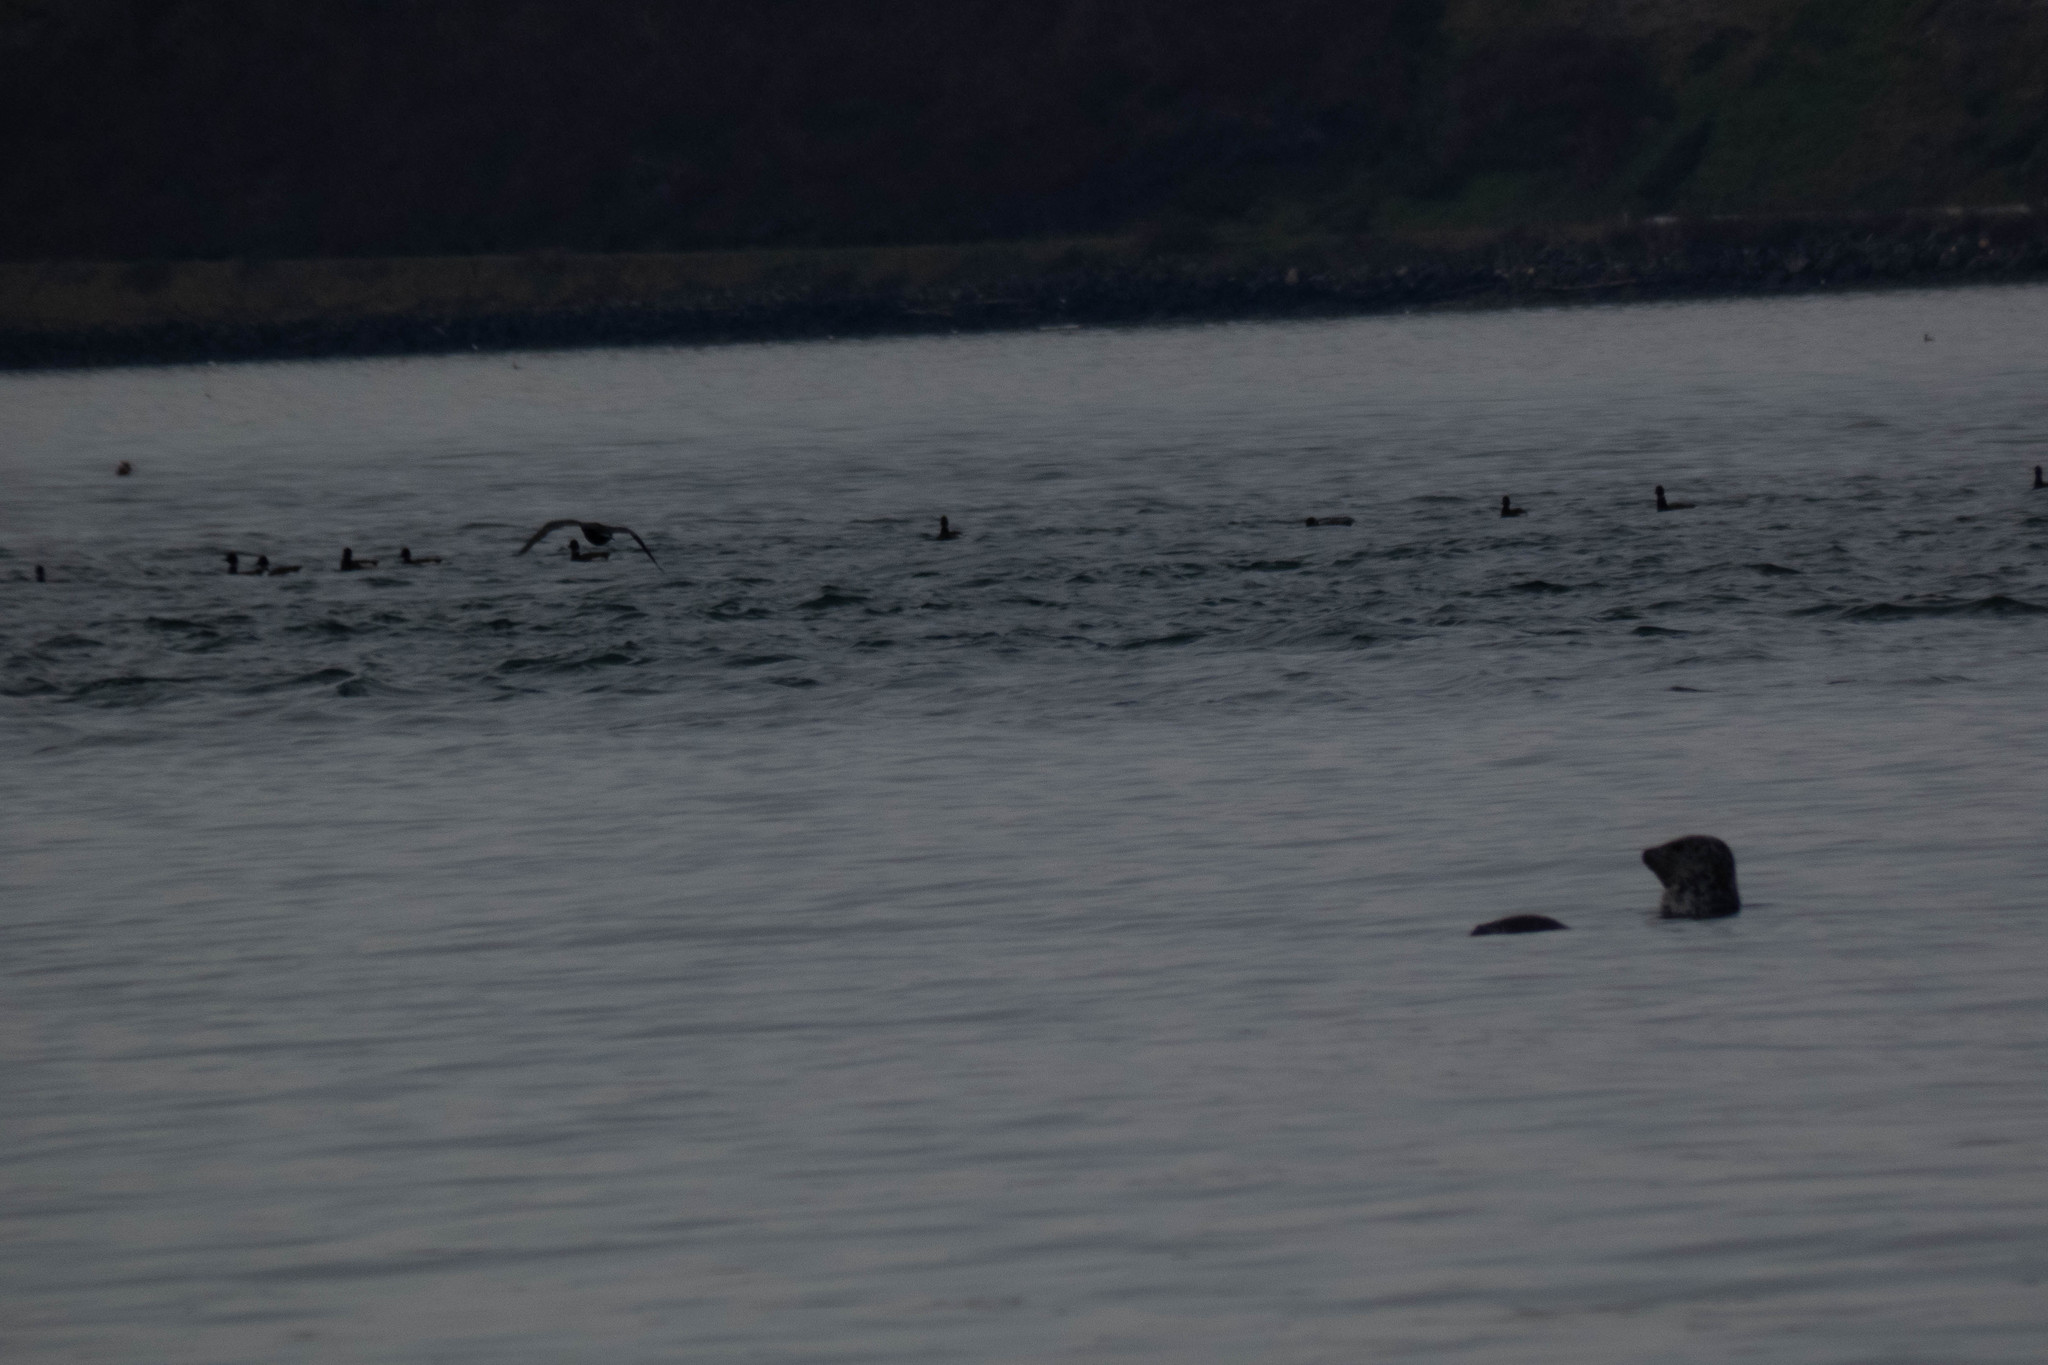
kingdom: Animalia
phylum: Chordata
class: Mammalia
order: Carnivora
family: Phocidae
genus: Phoca
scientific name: Phoca vitulina
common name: Harbor seal
